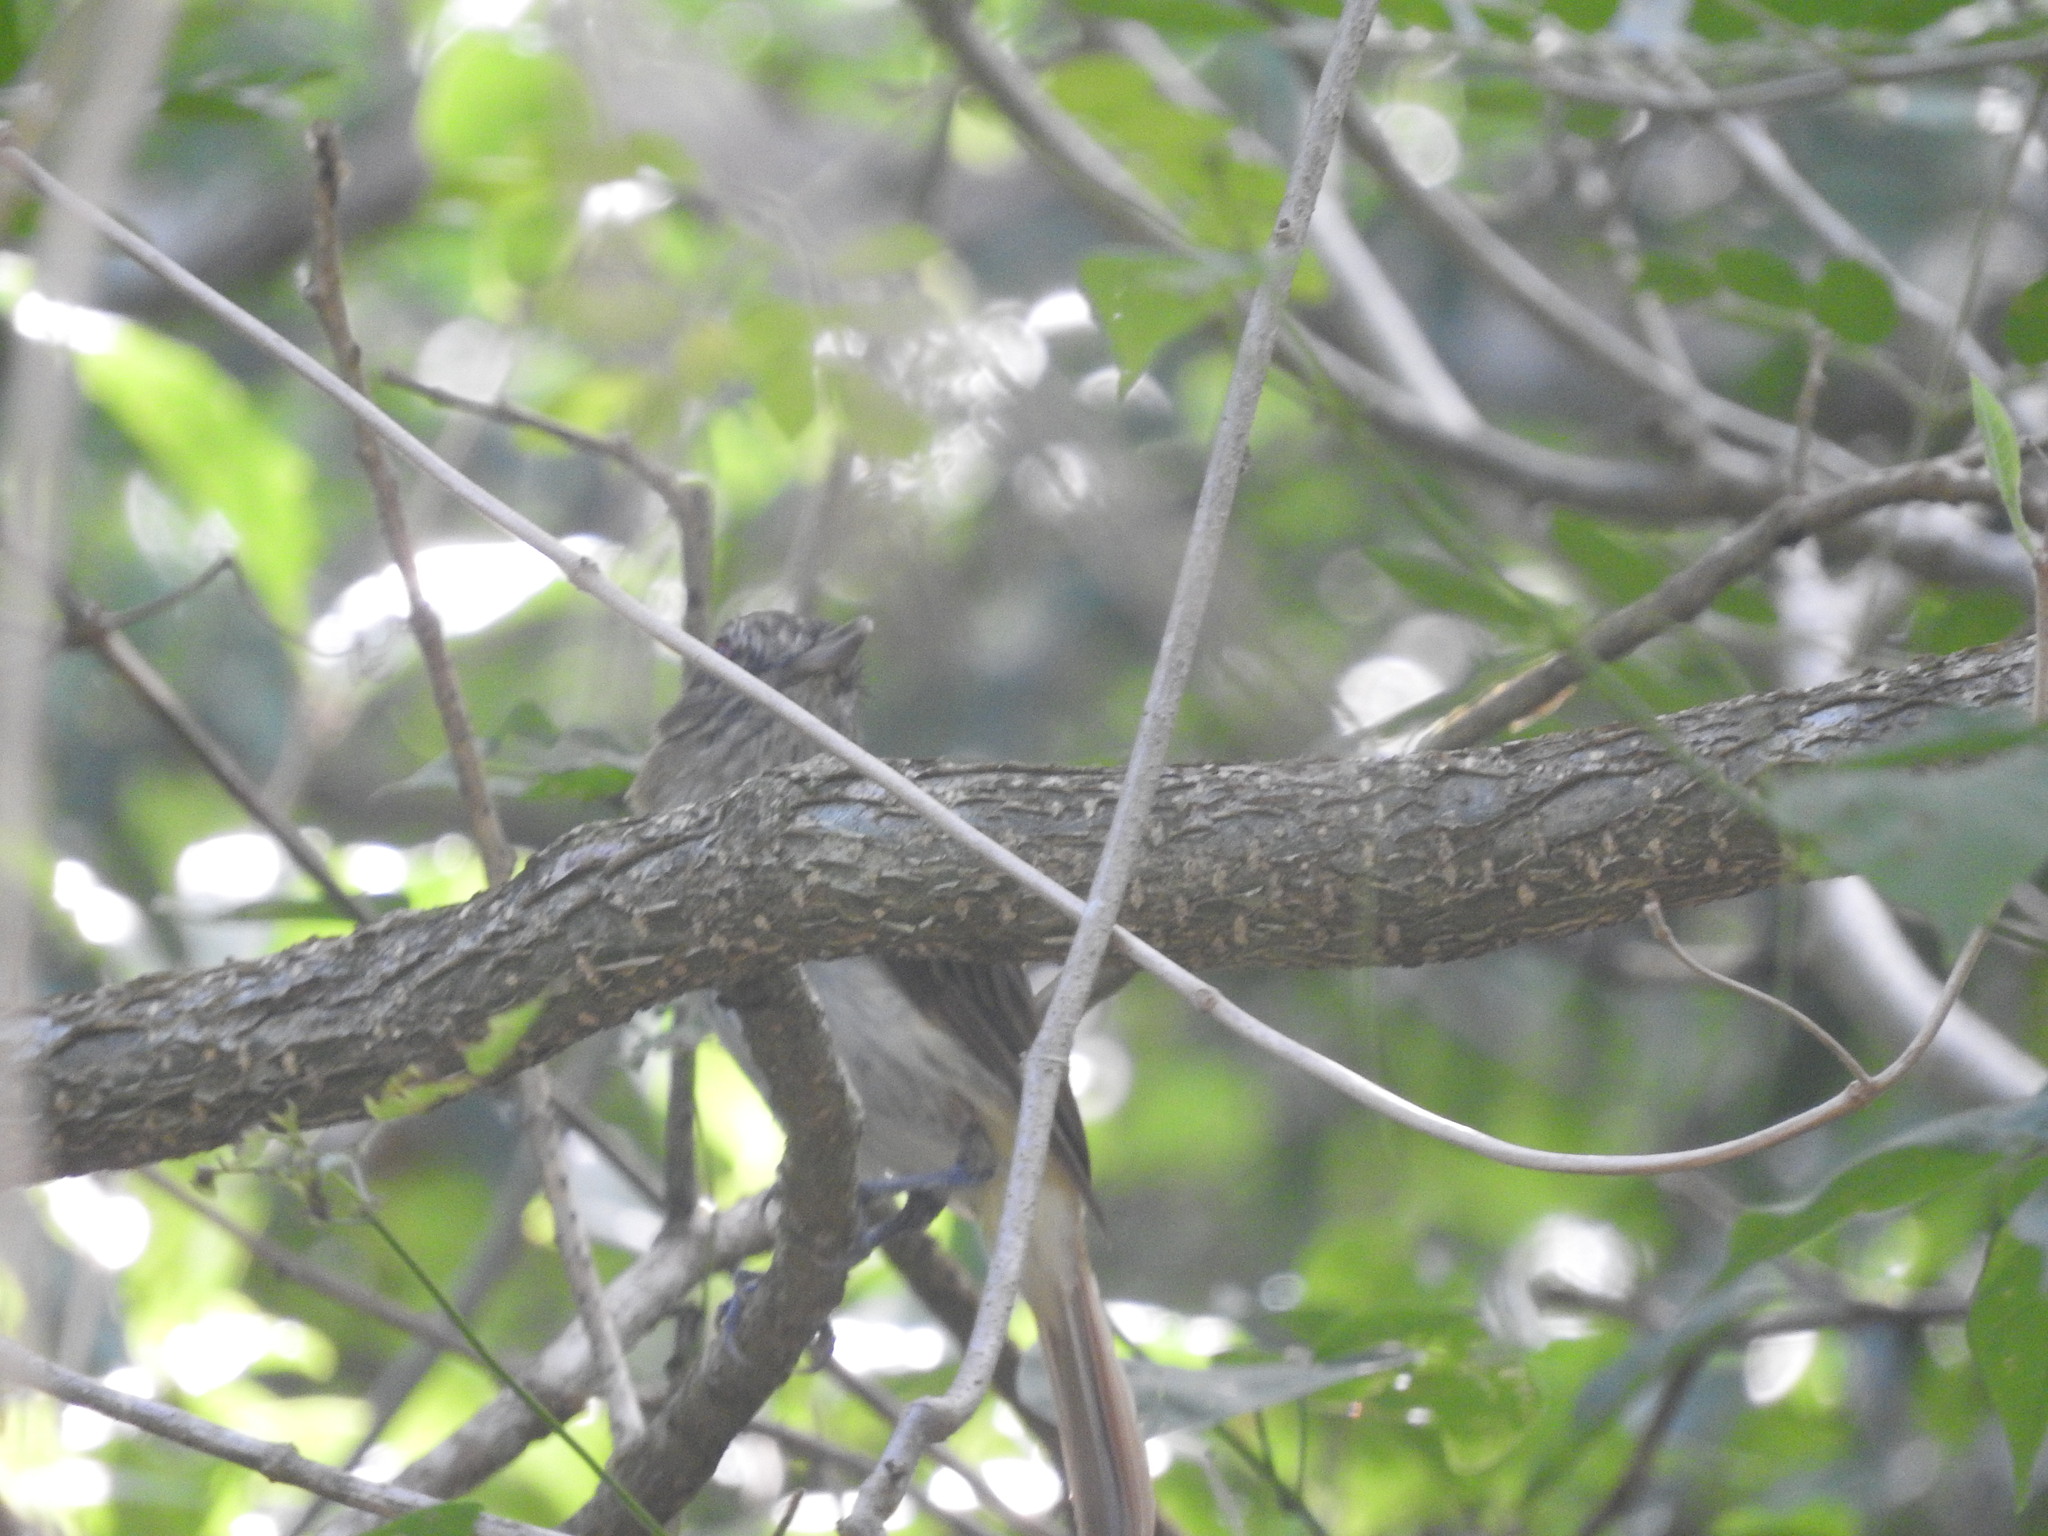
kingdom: Animalia
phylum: Chordata
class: Aves
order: Passeriformes
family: Tyrannidae
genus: Attila
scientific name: Attila spadiceus
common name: Bright-rumped attila
